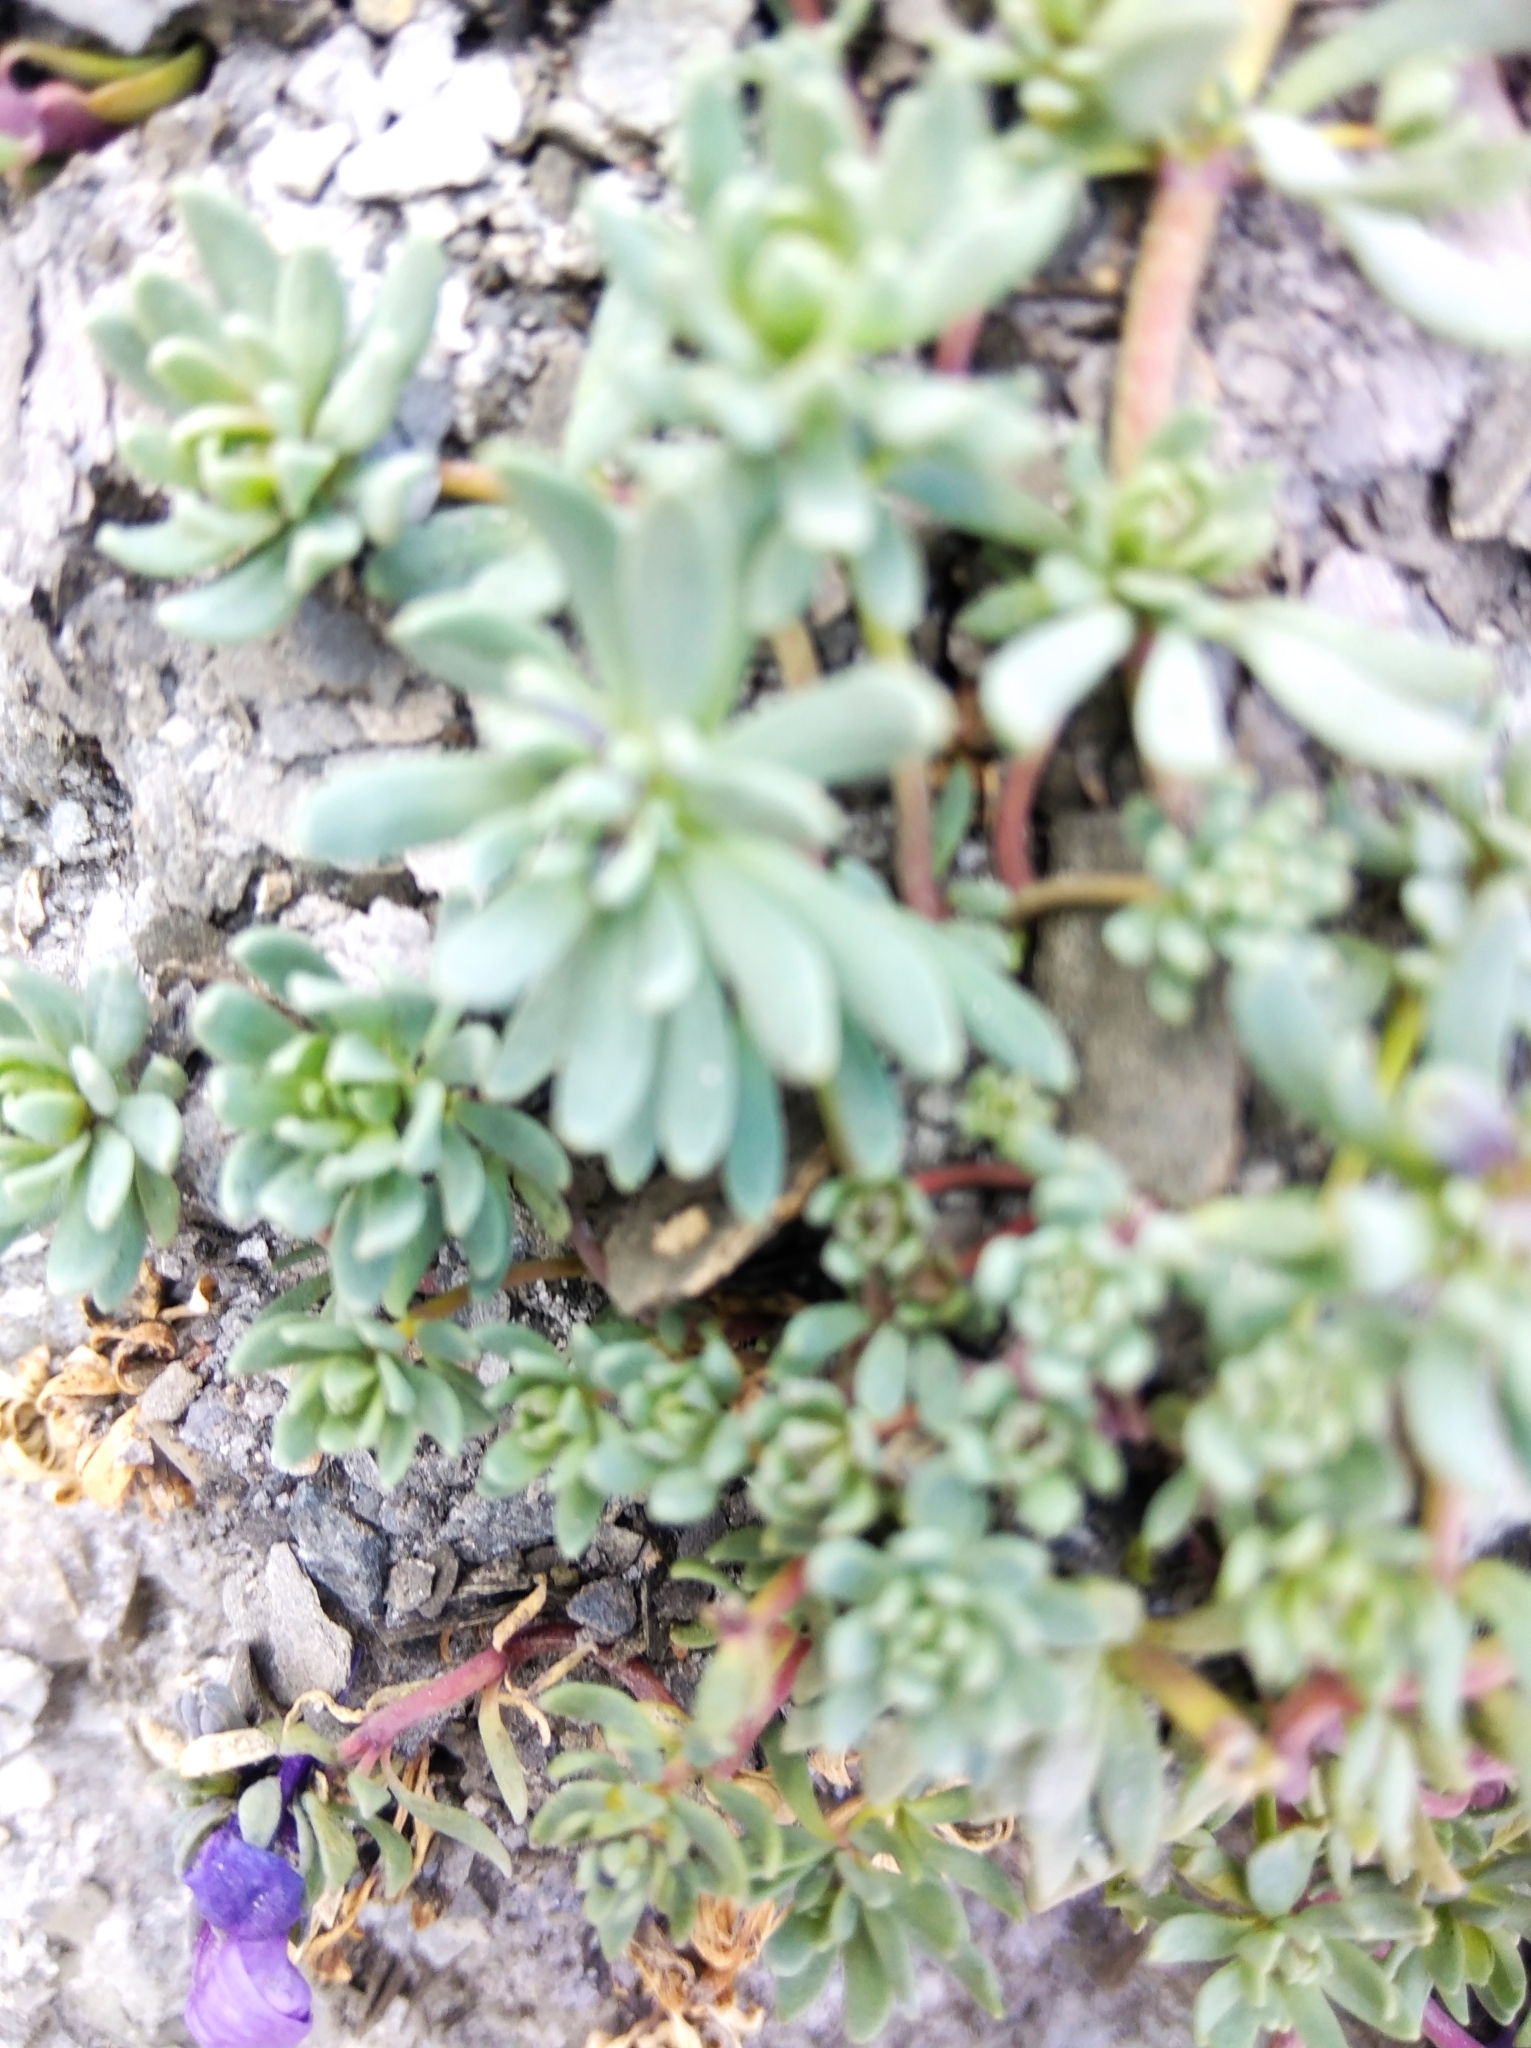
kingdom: Plantae
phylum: Tracheophyta
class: Magnoliopsida
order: Lamiales
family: Plantaginaceae
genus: Linaria
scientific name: Linaria alpina
